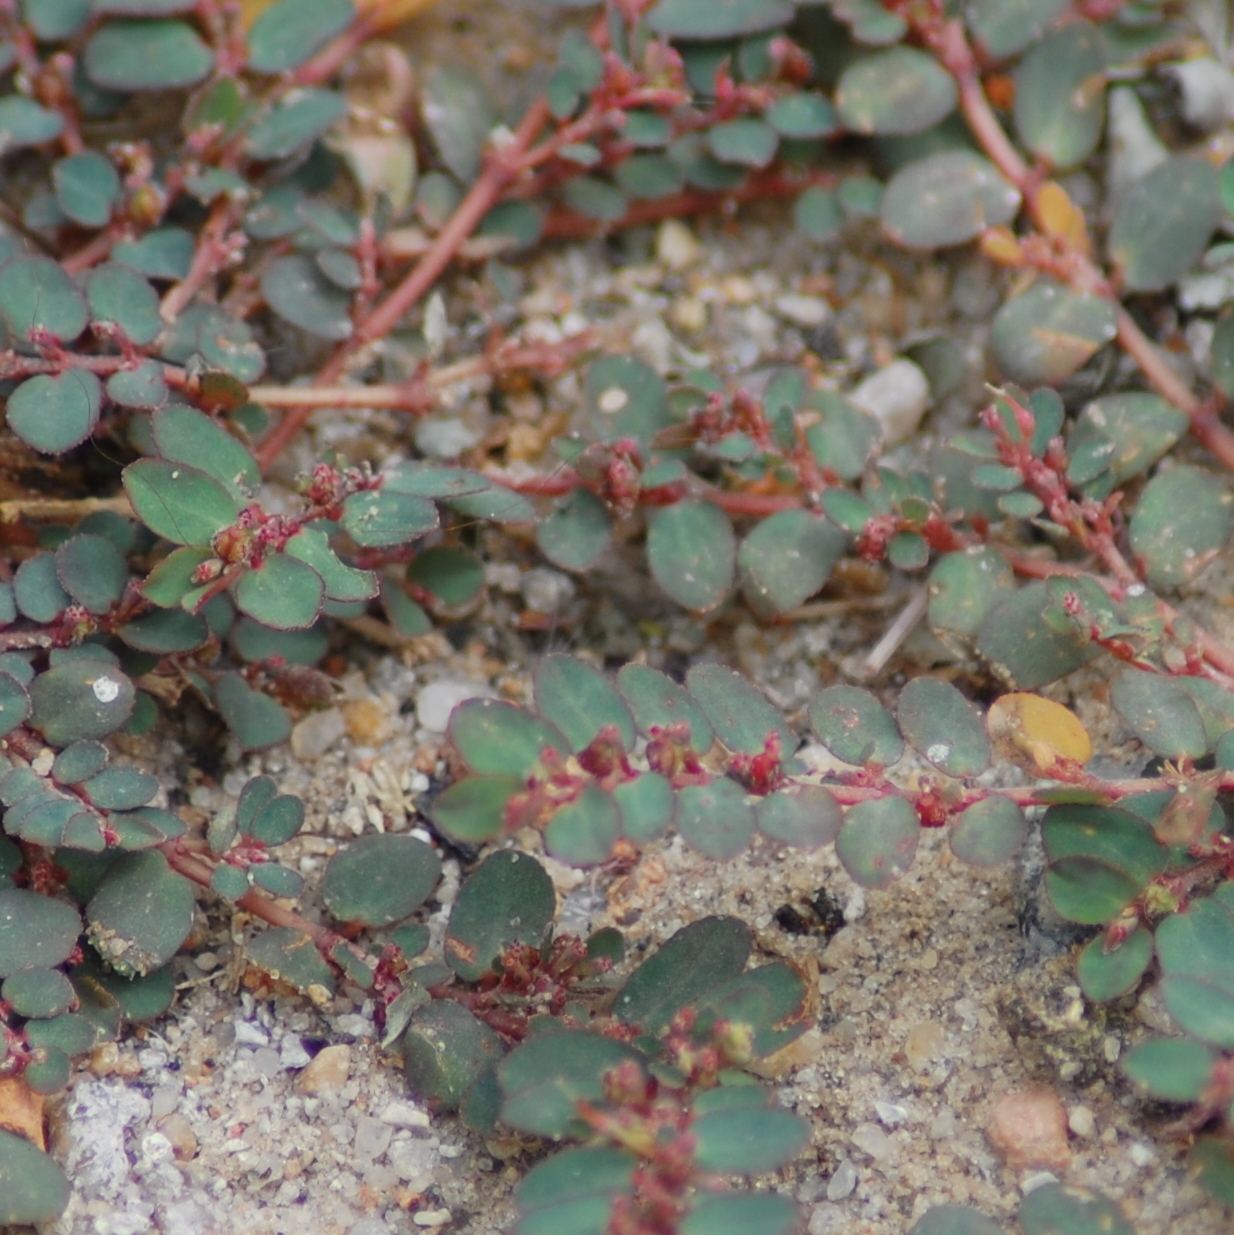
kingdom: Plantae
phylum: Tracheophyta
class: Magnoliopsida
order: Malpighiales
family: Euphorbiaceae
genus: Euphorbia
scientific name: Euphorbia prostrata
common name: Prostrate sandmat
